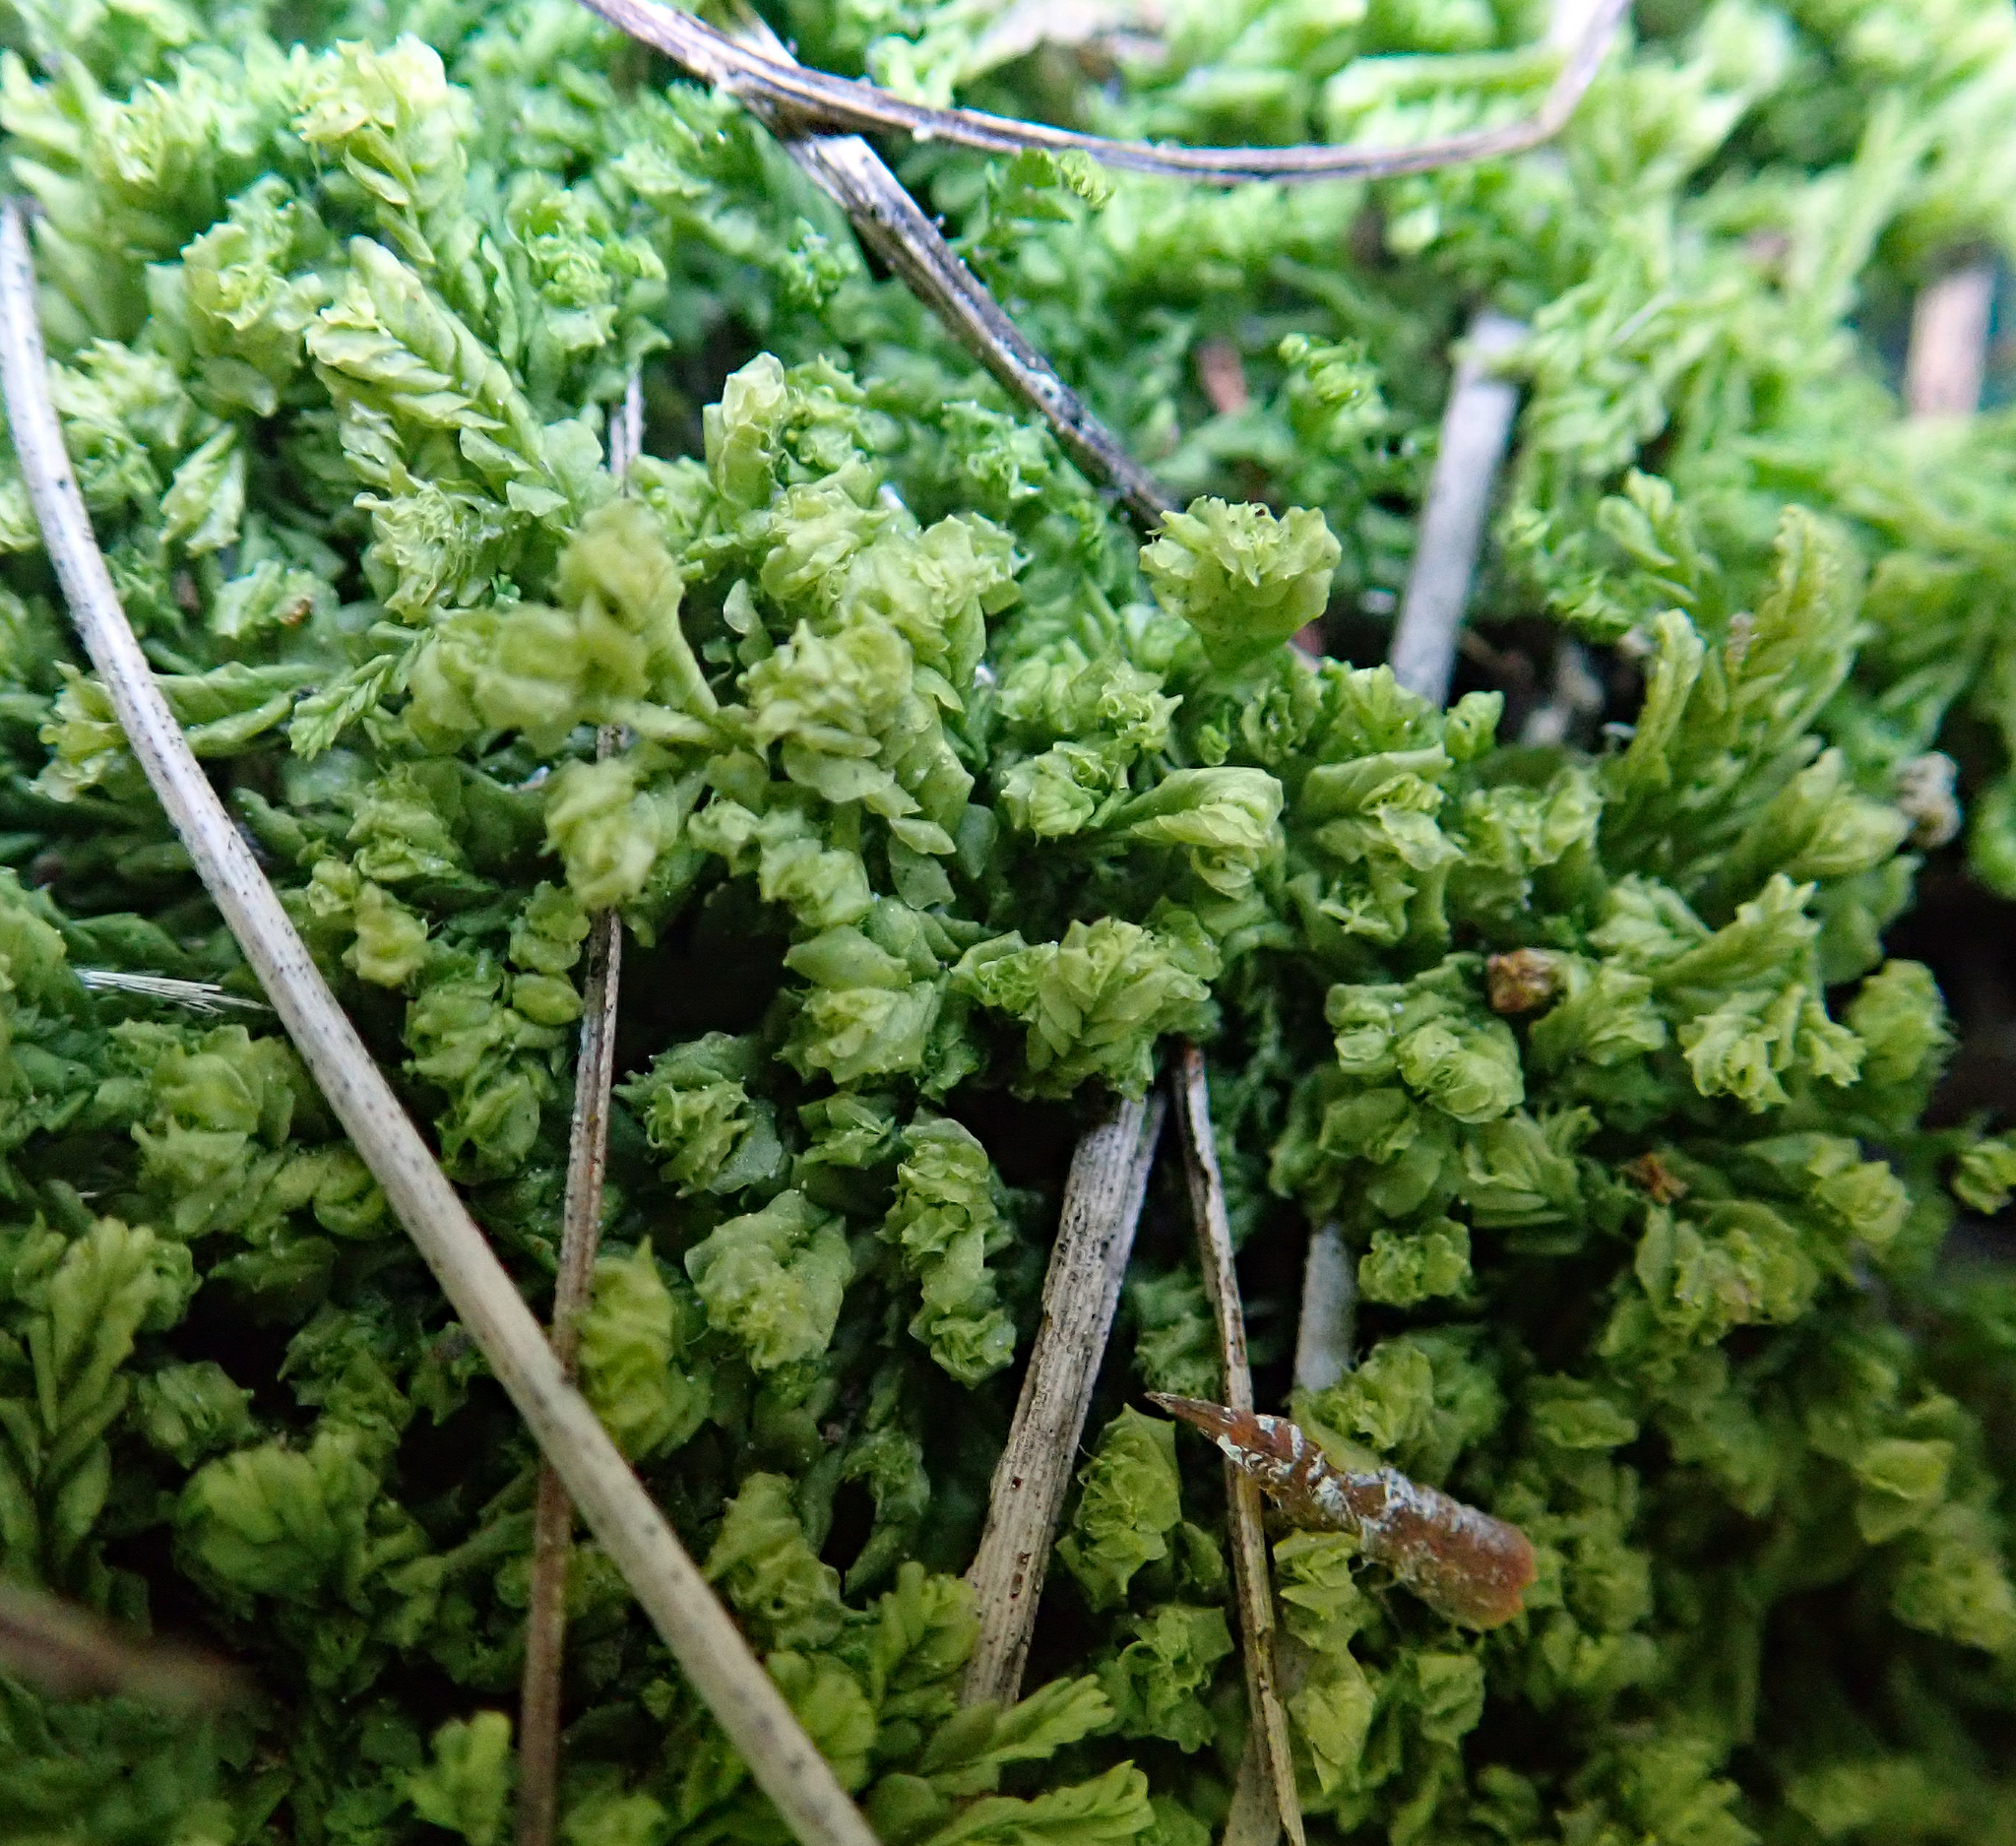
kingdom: Plantae
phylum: Marchantiophyta
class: Jungermanniopsida
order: Jungermanniales
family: Lophocoleaceae
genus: Lophocolea
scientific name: Lophocolea semiteres
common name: Southern crestwort
